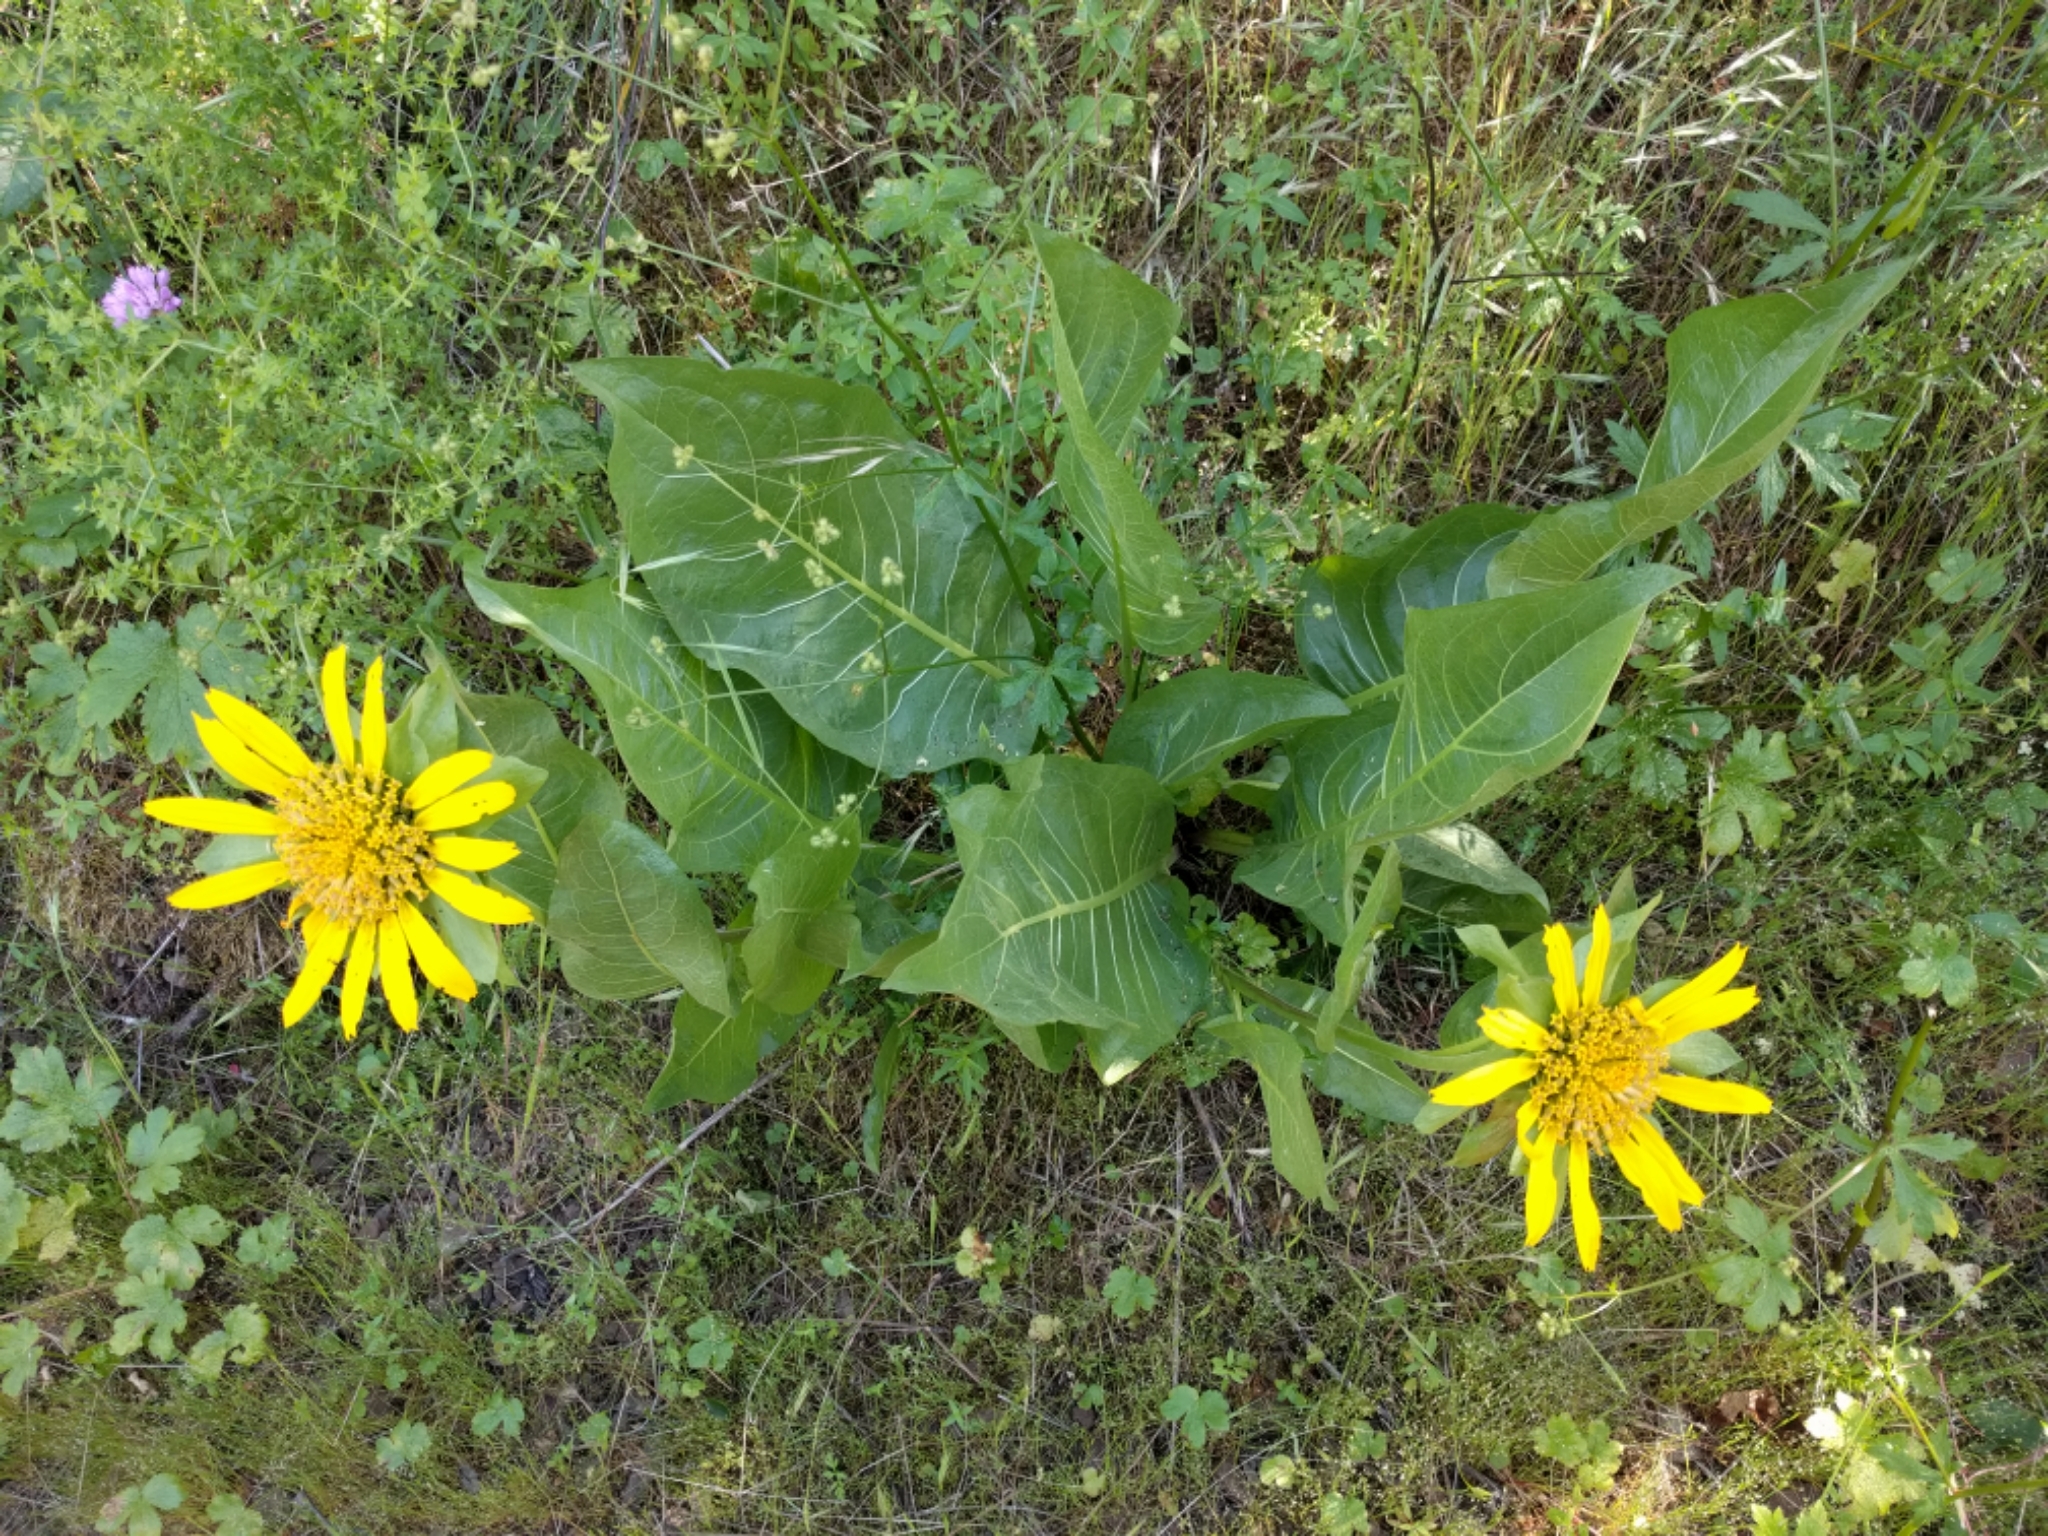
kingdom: Plantae
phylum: Tracheophyta
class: Magnoliopsida
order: Asterales
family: Asteraceae
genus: Wyethia
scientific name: Wyethia glabra
